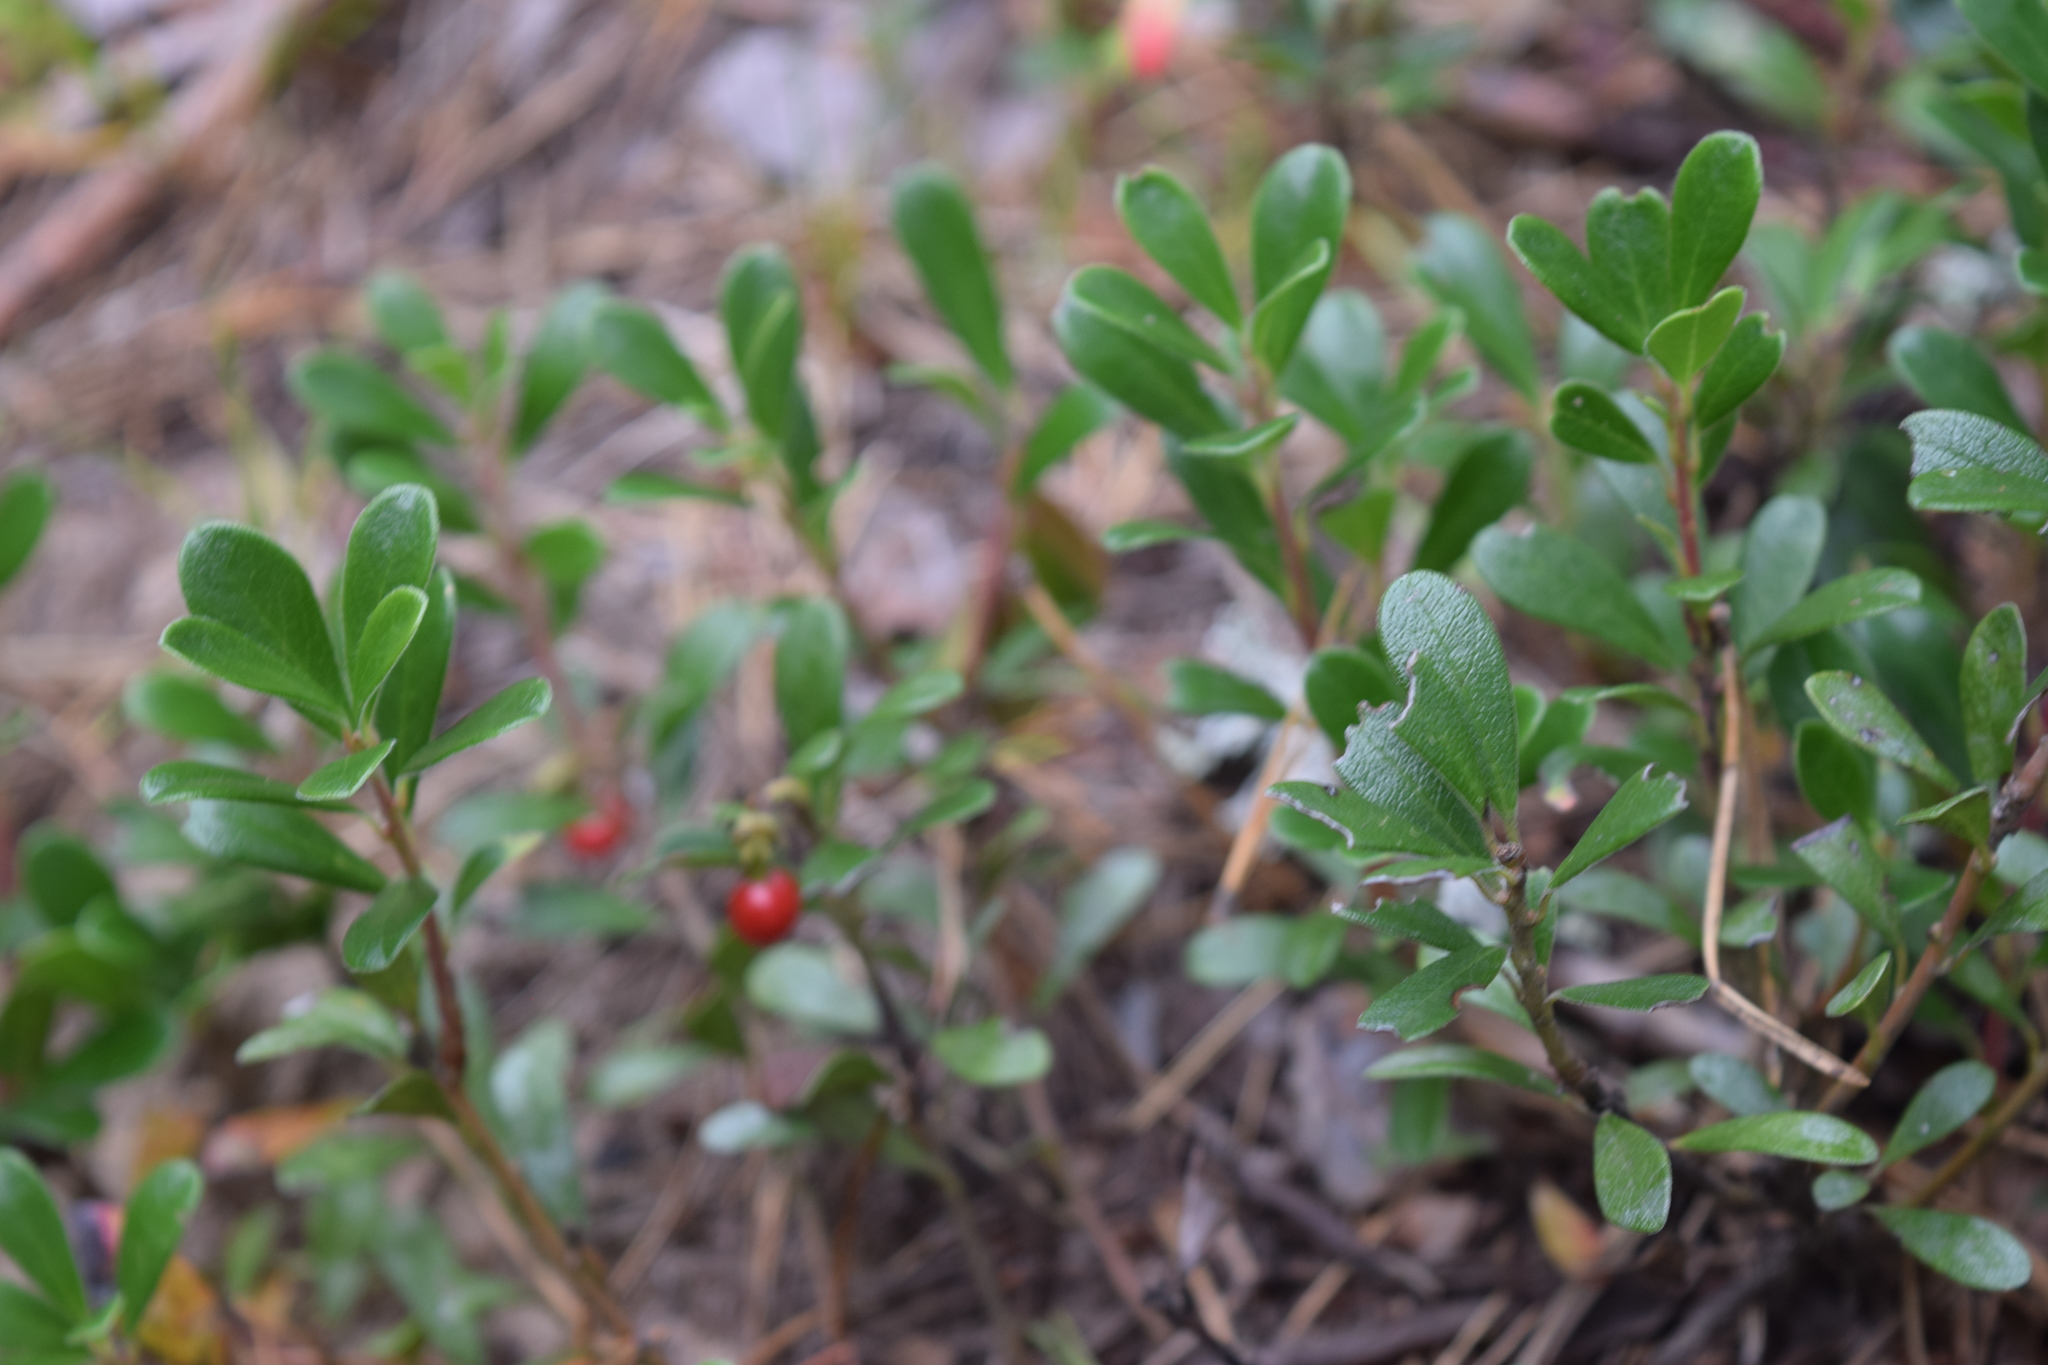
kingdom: Plantae
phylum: Tracheophyta
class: Magnoliopsida
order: Ericales
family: Ericaceae
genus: Arctostaphylos
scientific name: Arctostaphylos uva-ursi
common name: Bearberry
